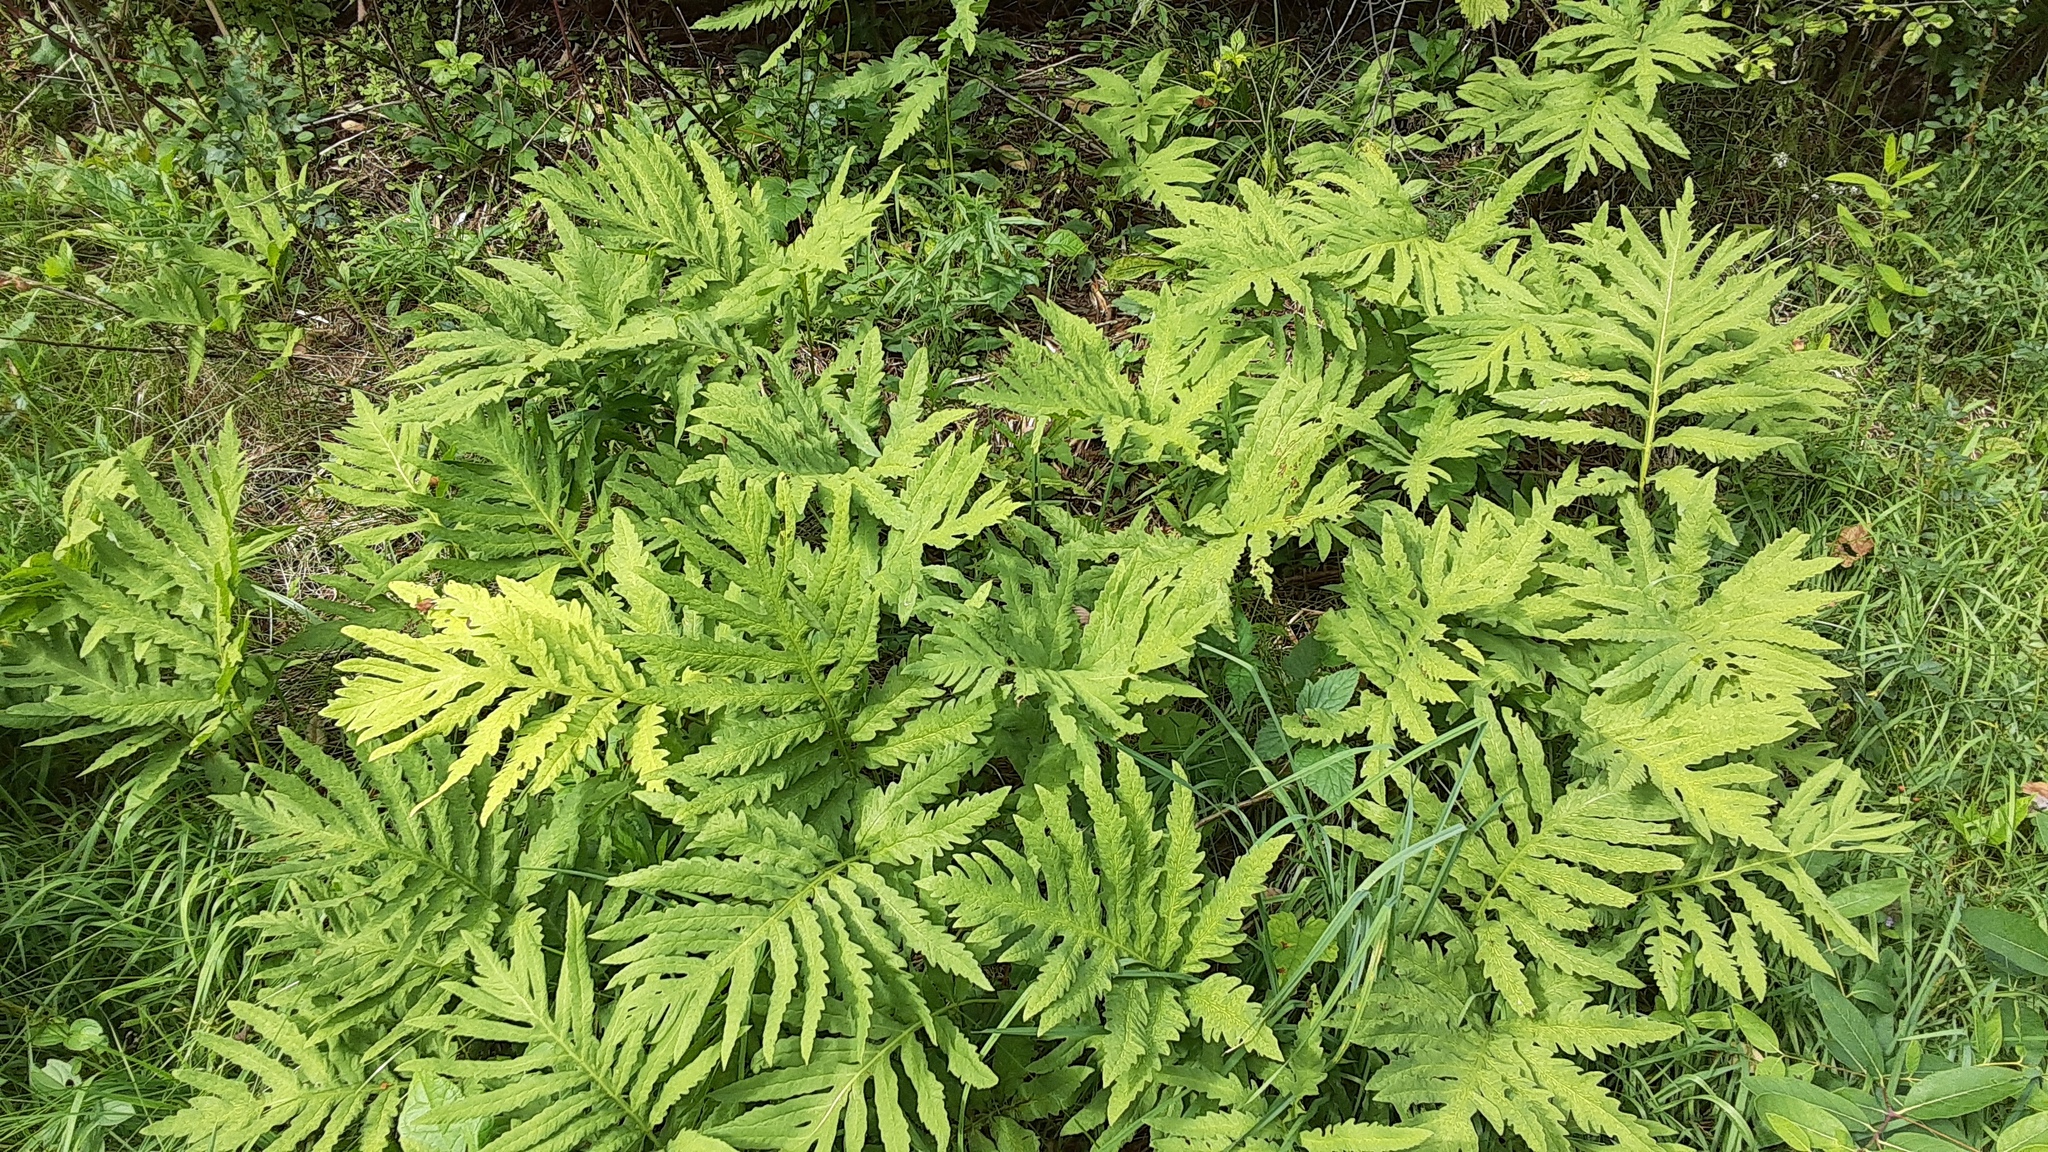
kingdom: Plantae
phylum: Tracheophyta
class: Polypodiopsida
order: Polypodiales
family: Onocleaceae
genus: Onoclea
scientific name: Onoclea sensibilis
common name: Sensitive fern
